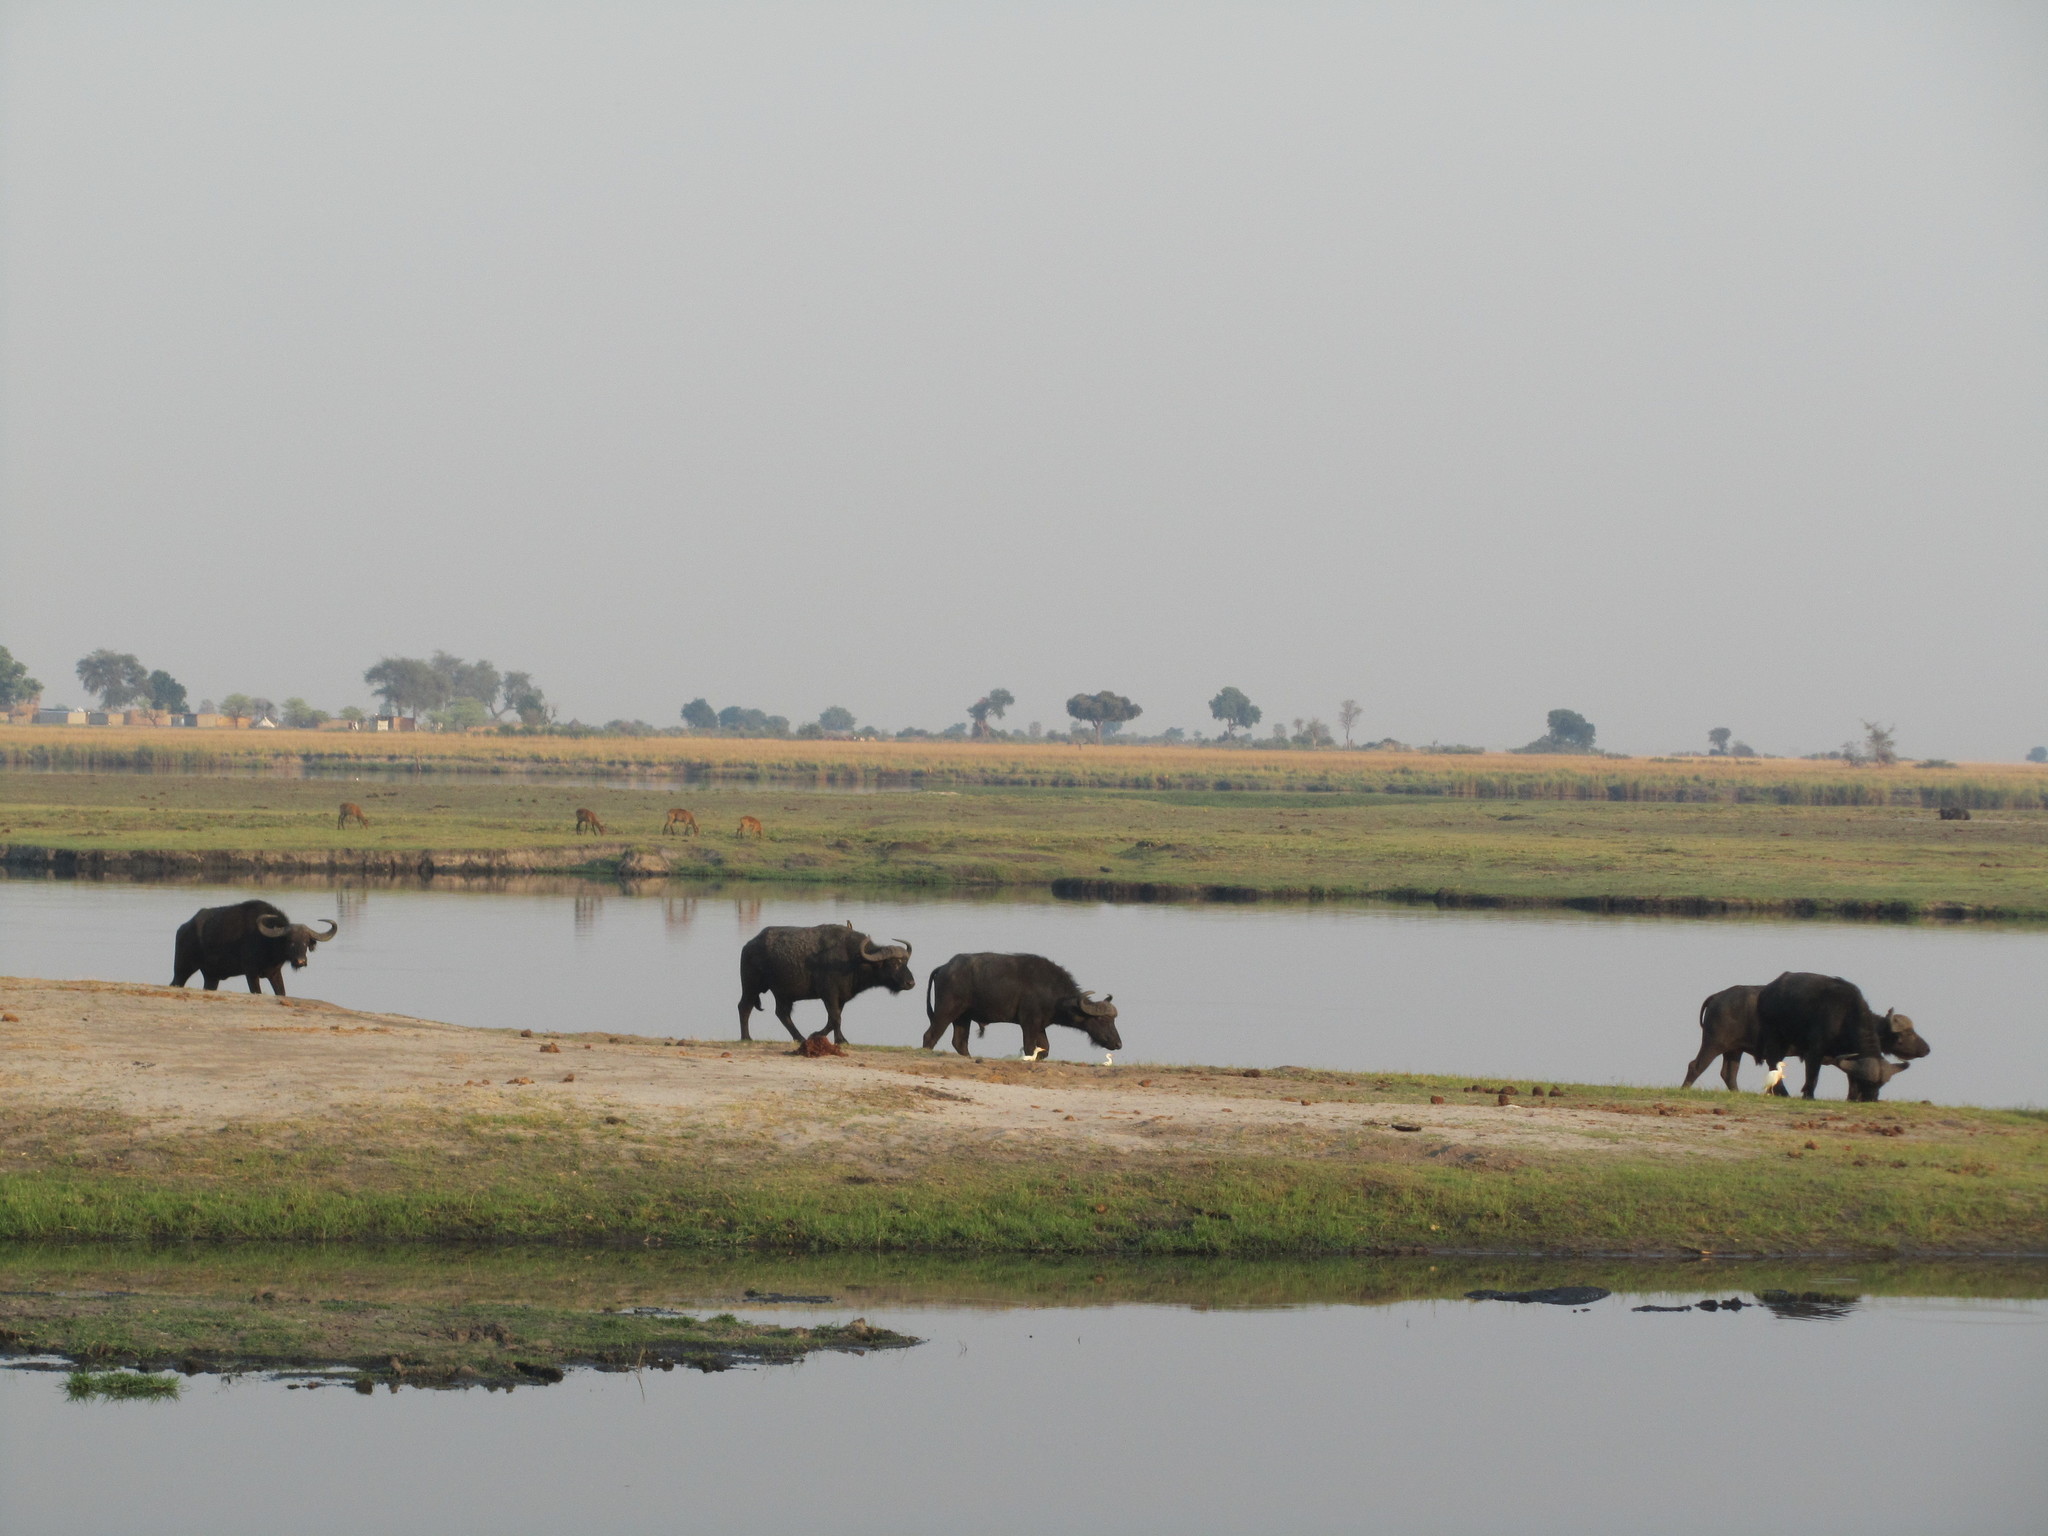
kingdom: Animalia
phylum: Chordata
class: Mammalia
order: Artiodactyla
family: Bovidae
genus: Syncerus
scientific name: Syncerus caffer
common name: African buffalo
